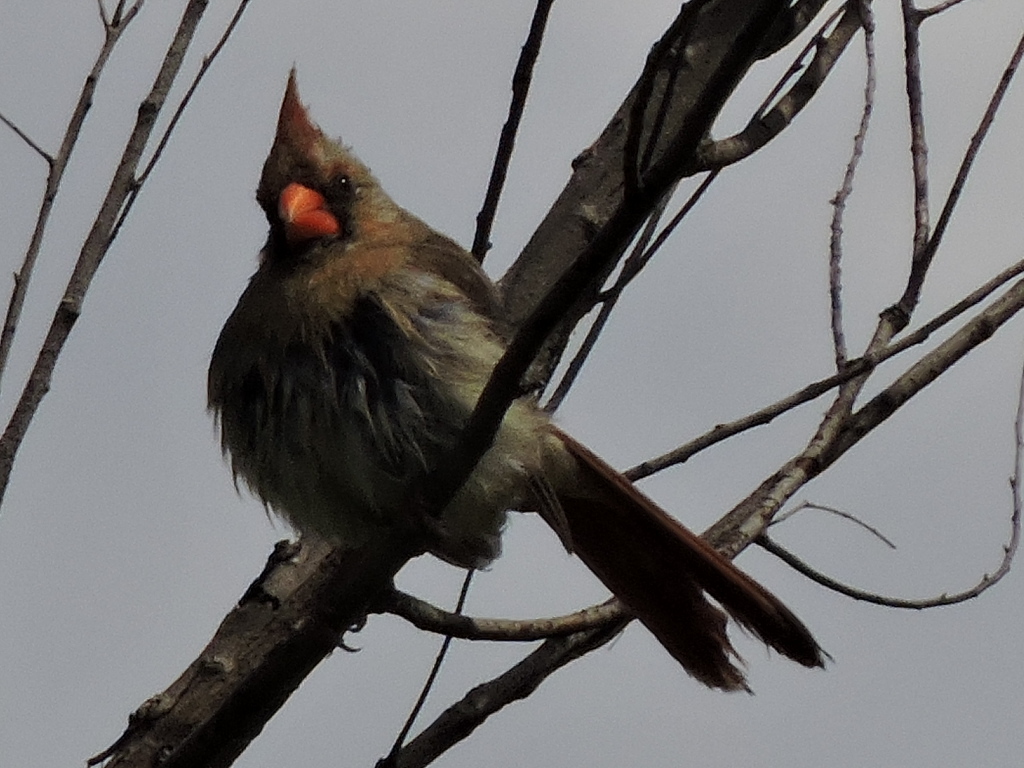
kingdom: Animalia
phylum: Chordata
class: Aves
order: Passeriformes
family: Cardinalidae
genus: Cardinalis
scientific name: Cardinalis cardinalis
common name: Northern cardinal
